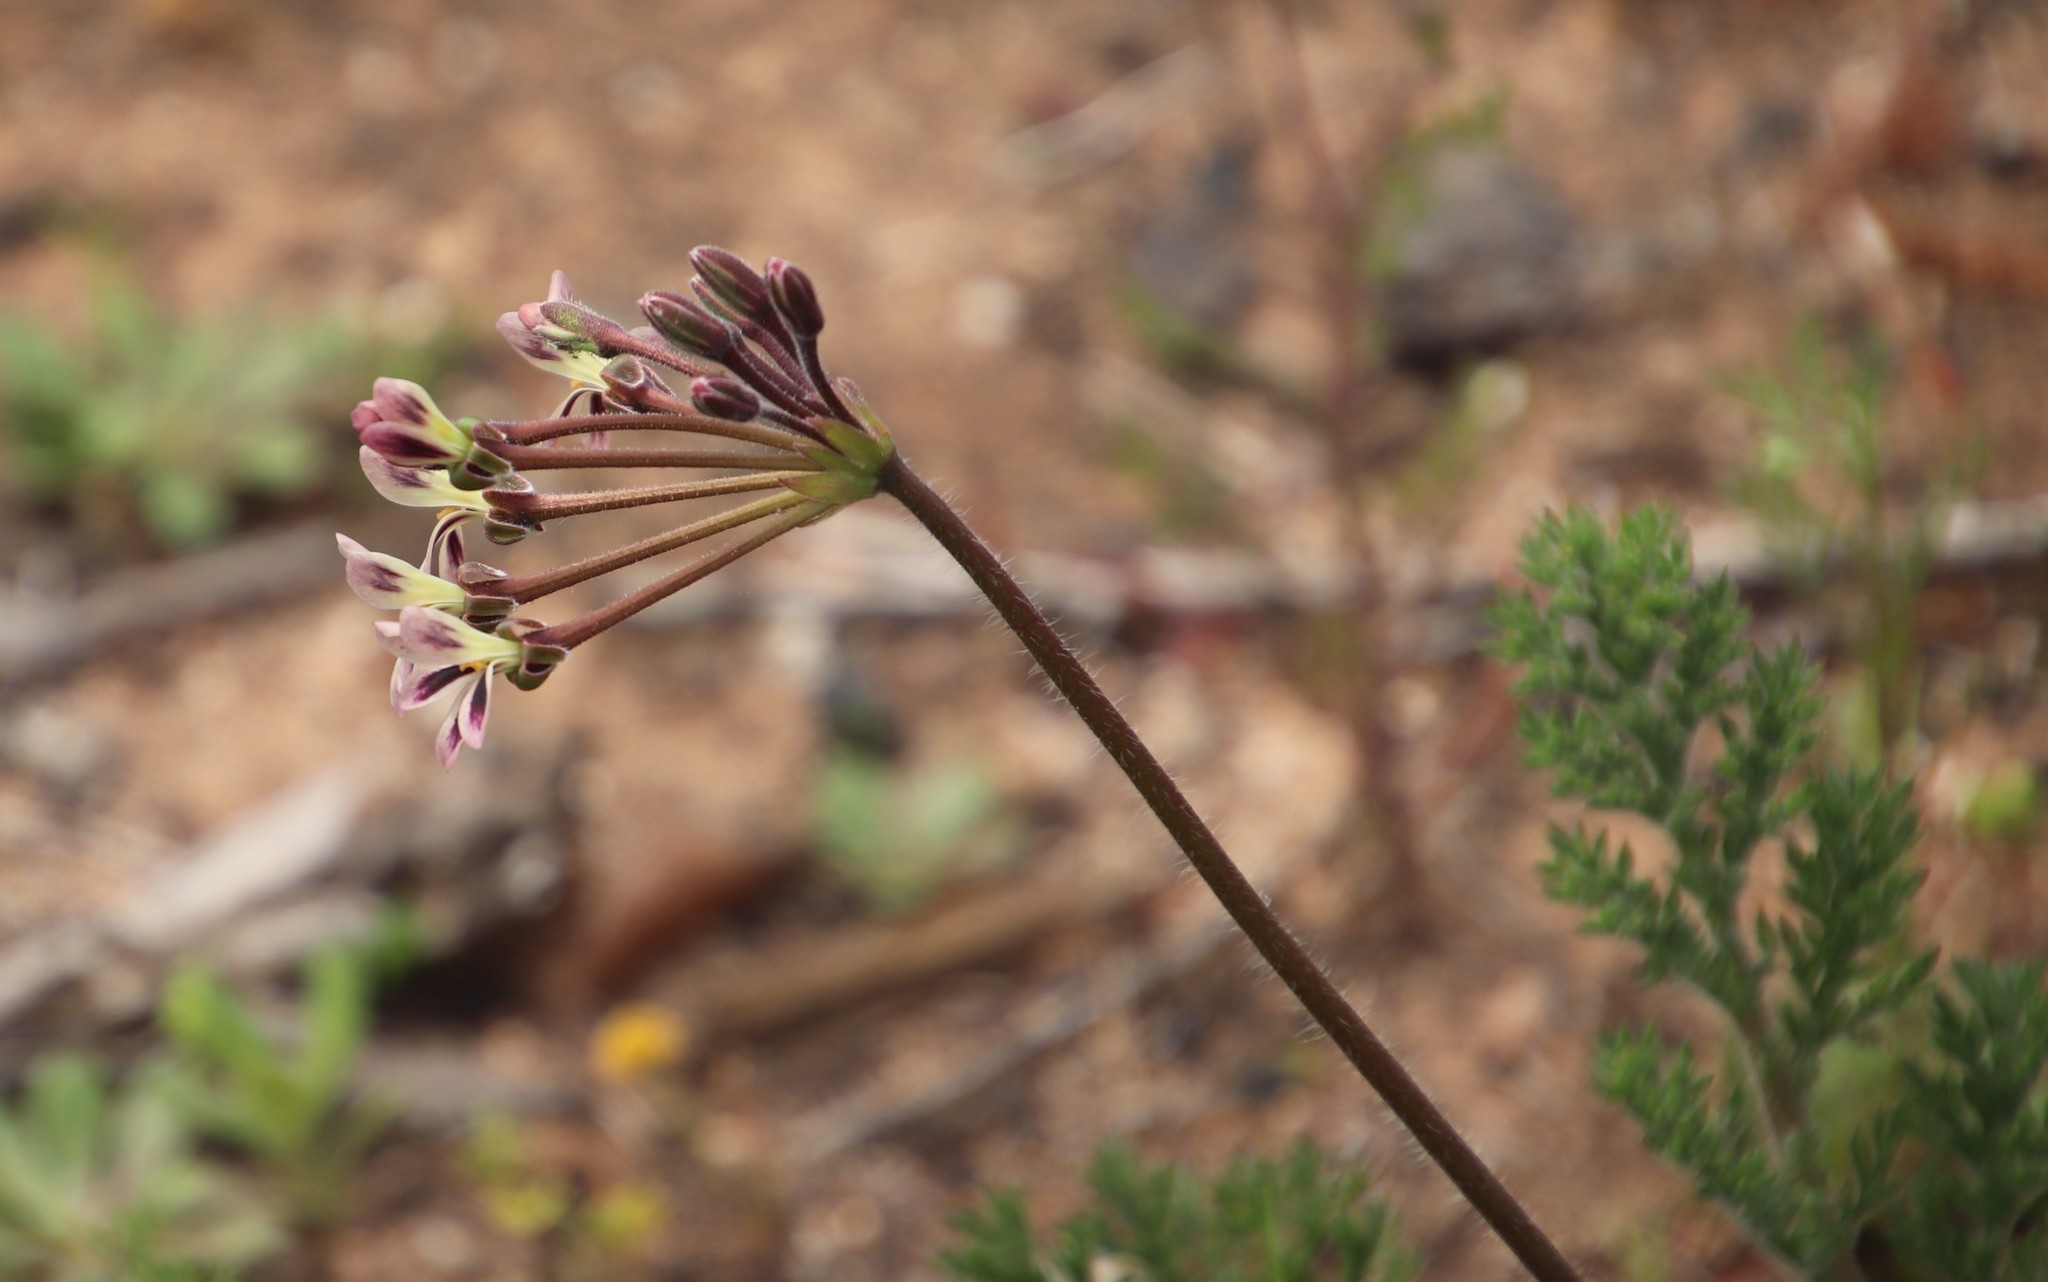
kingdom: Plantae
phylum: Tracheophyta
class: Magnoliopsida
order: Geraniales
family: Geraniaceae
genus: Pelargonium
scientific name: Pelargonium triste
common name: Night-scent pelargonium
